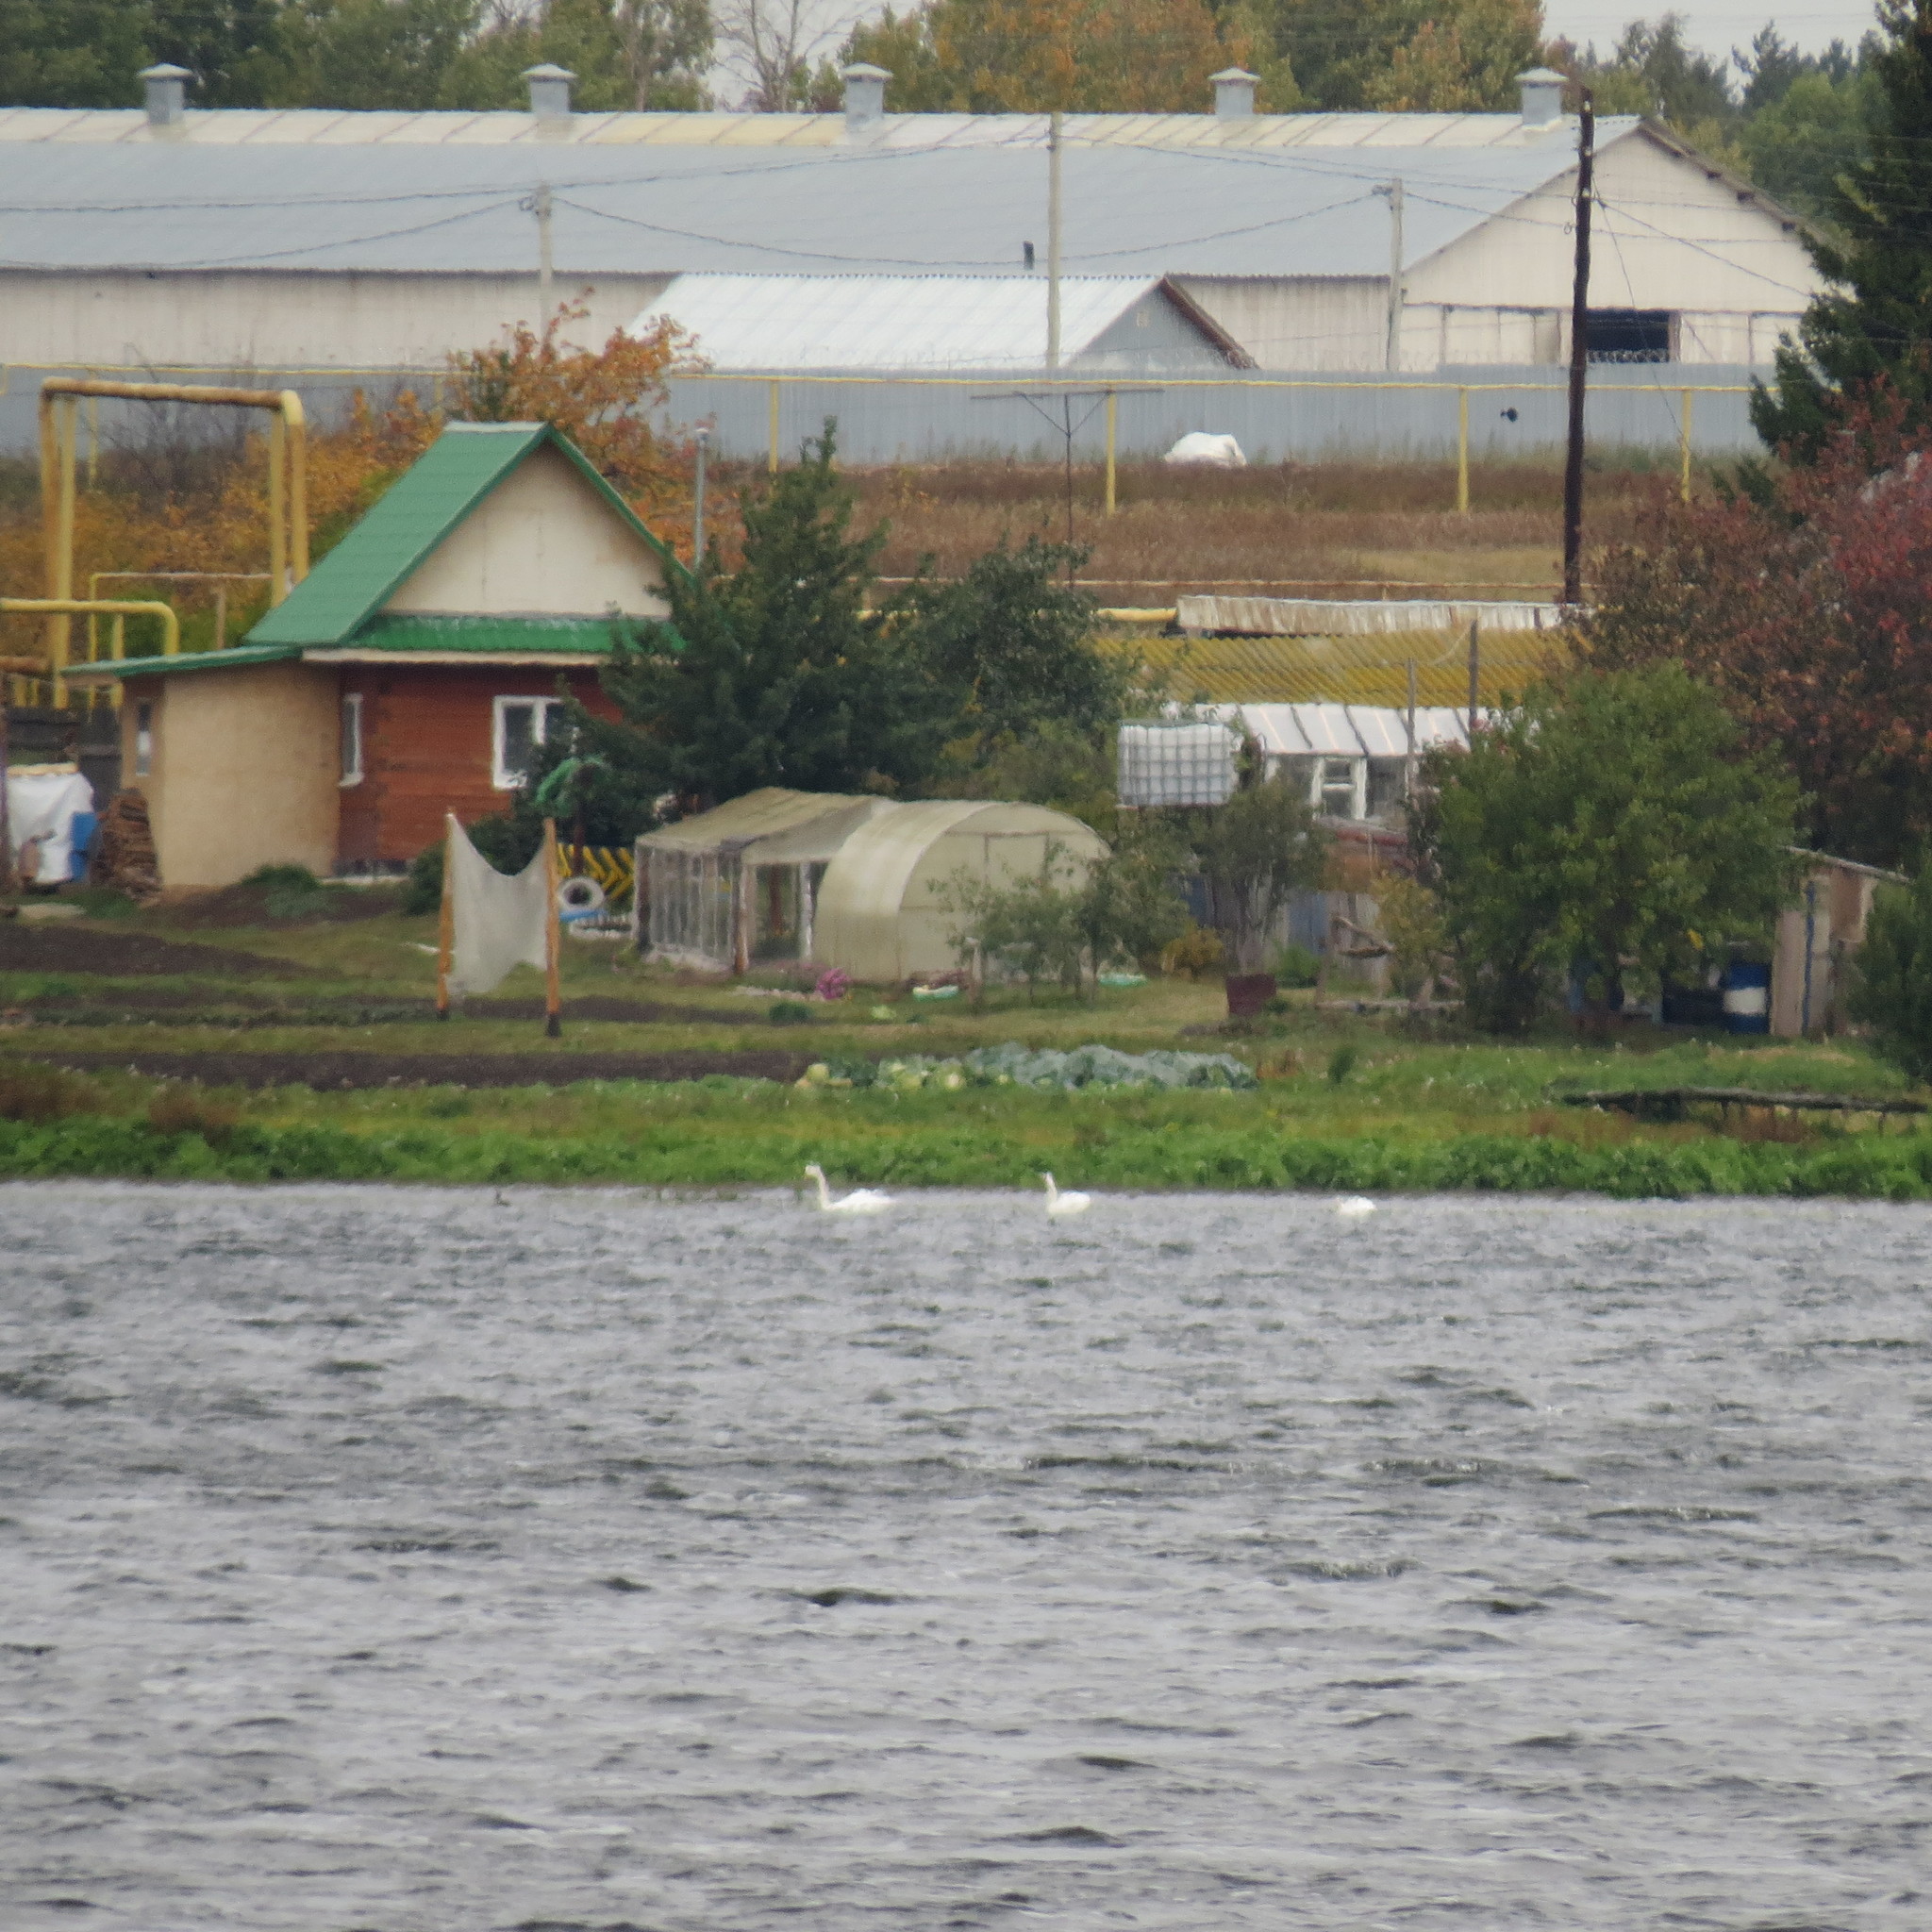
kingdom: Animalia
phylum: Chordata
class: Aves
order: Anseriformes
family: Anatidae
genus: Cygnus
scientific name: Cygnus olor
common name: Mute swan
